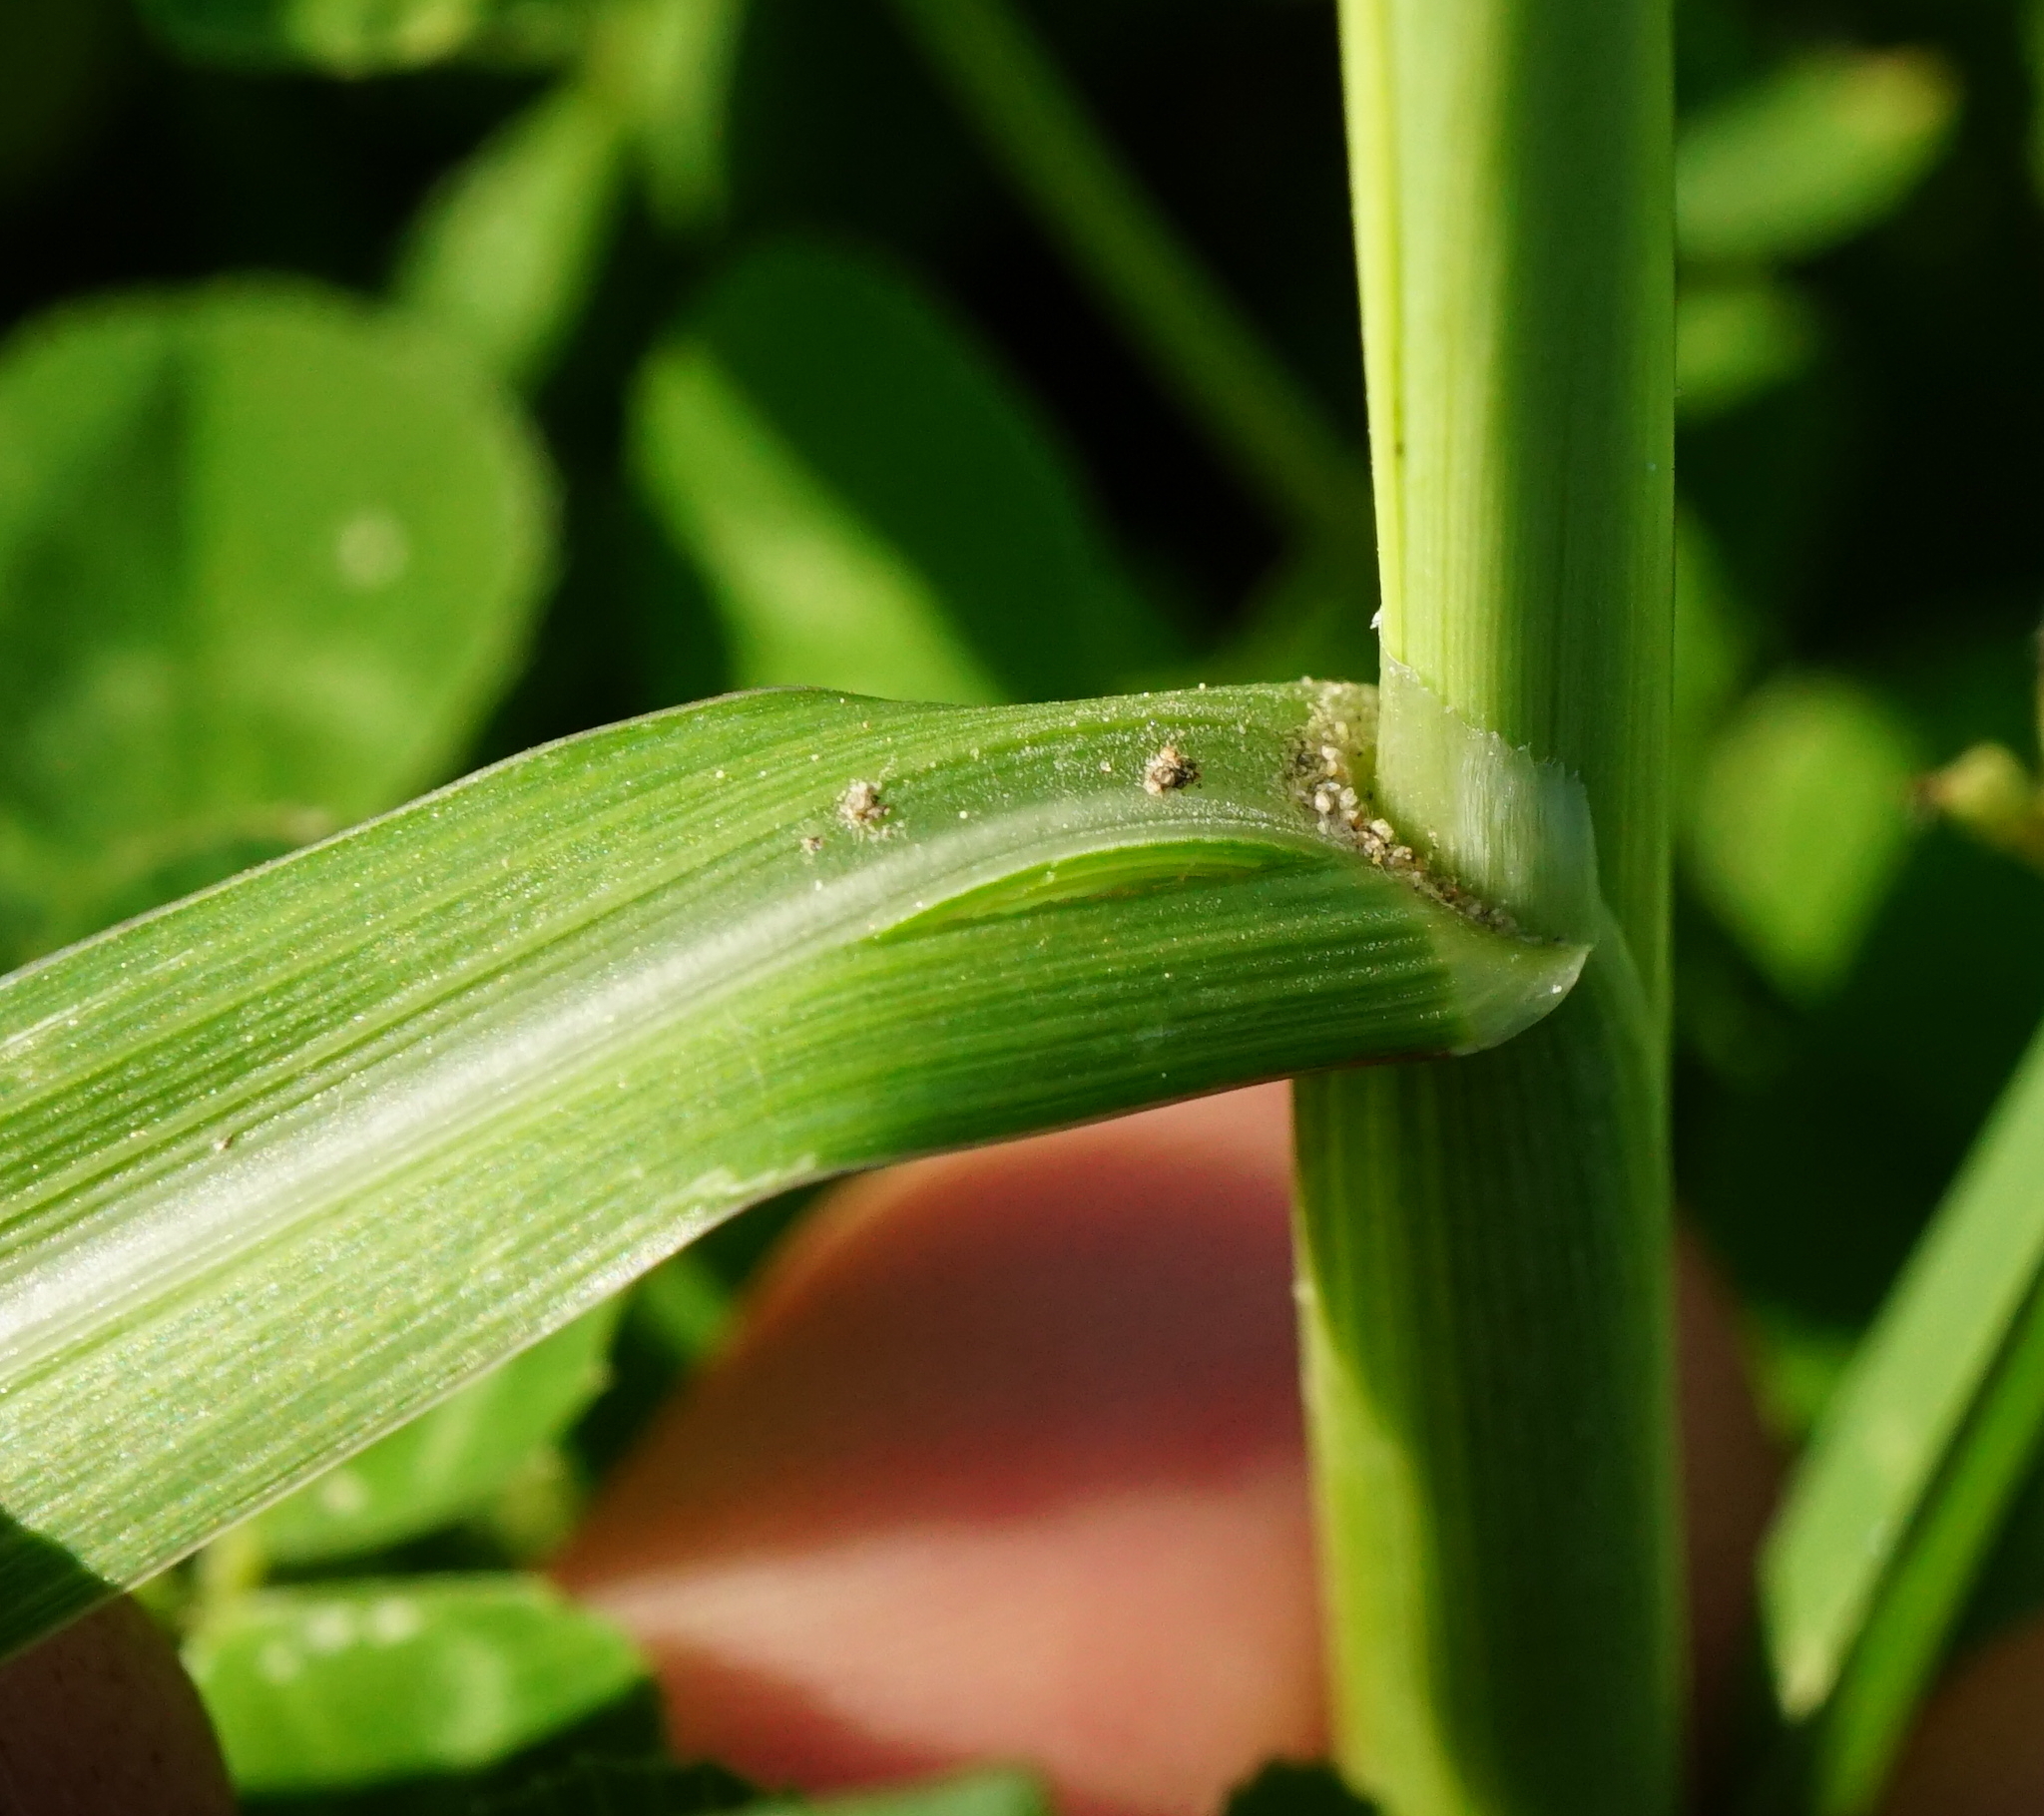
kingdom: Plantae
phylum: Tracheophyta
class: Liliopsida
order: Poales
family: Poaceae
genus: Zea
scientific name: Zea mays
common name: Maize
